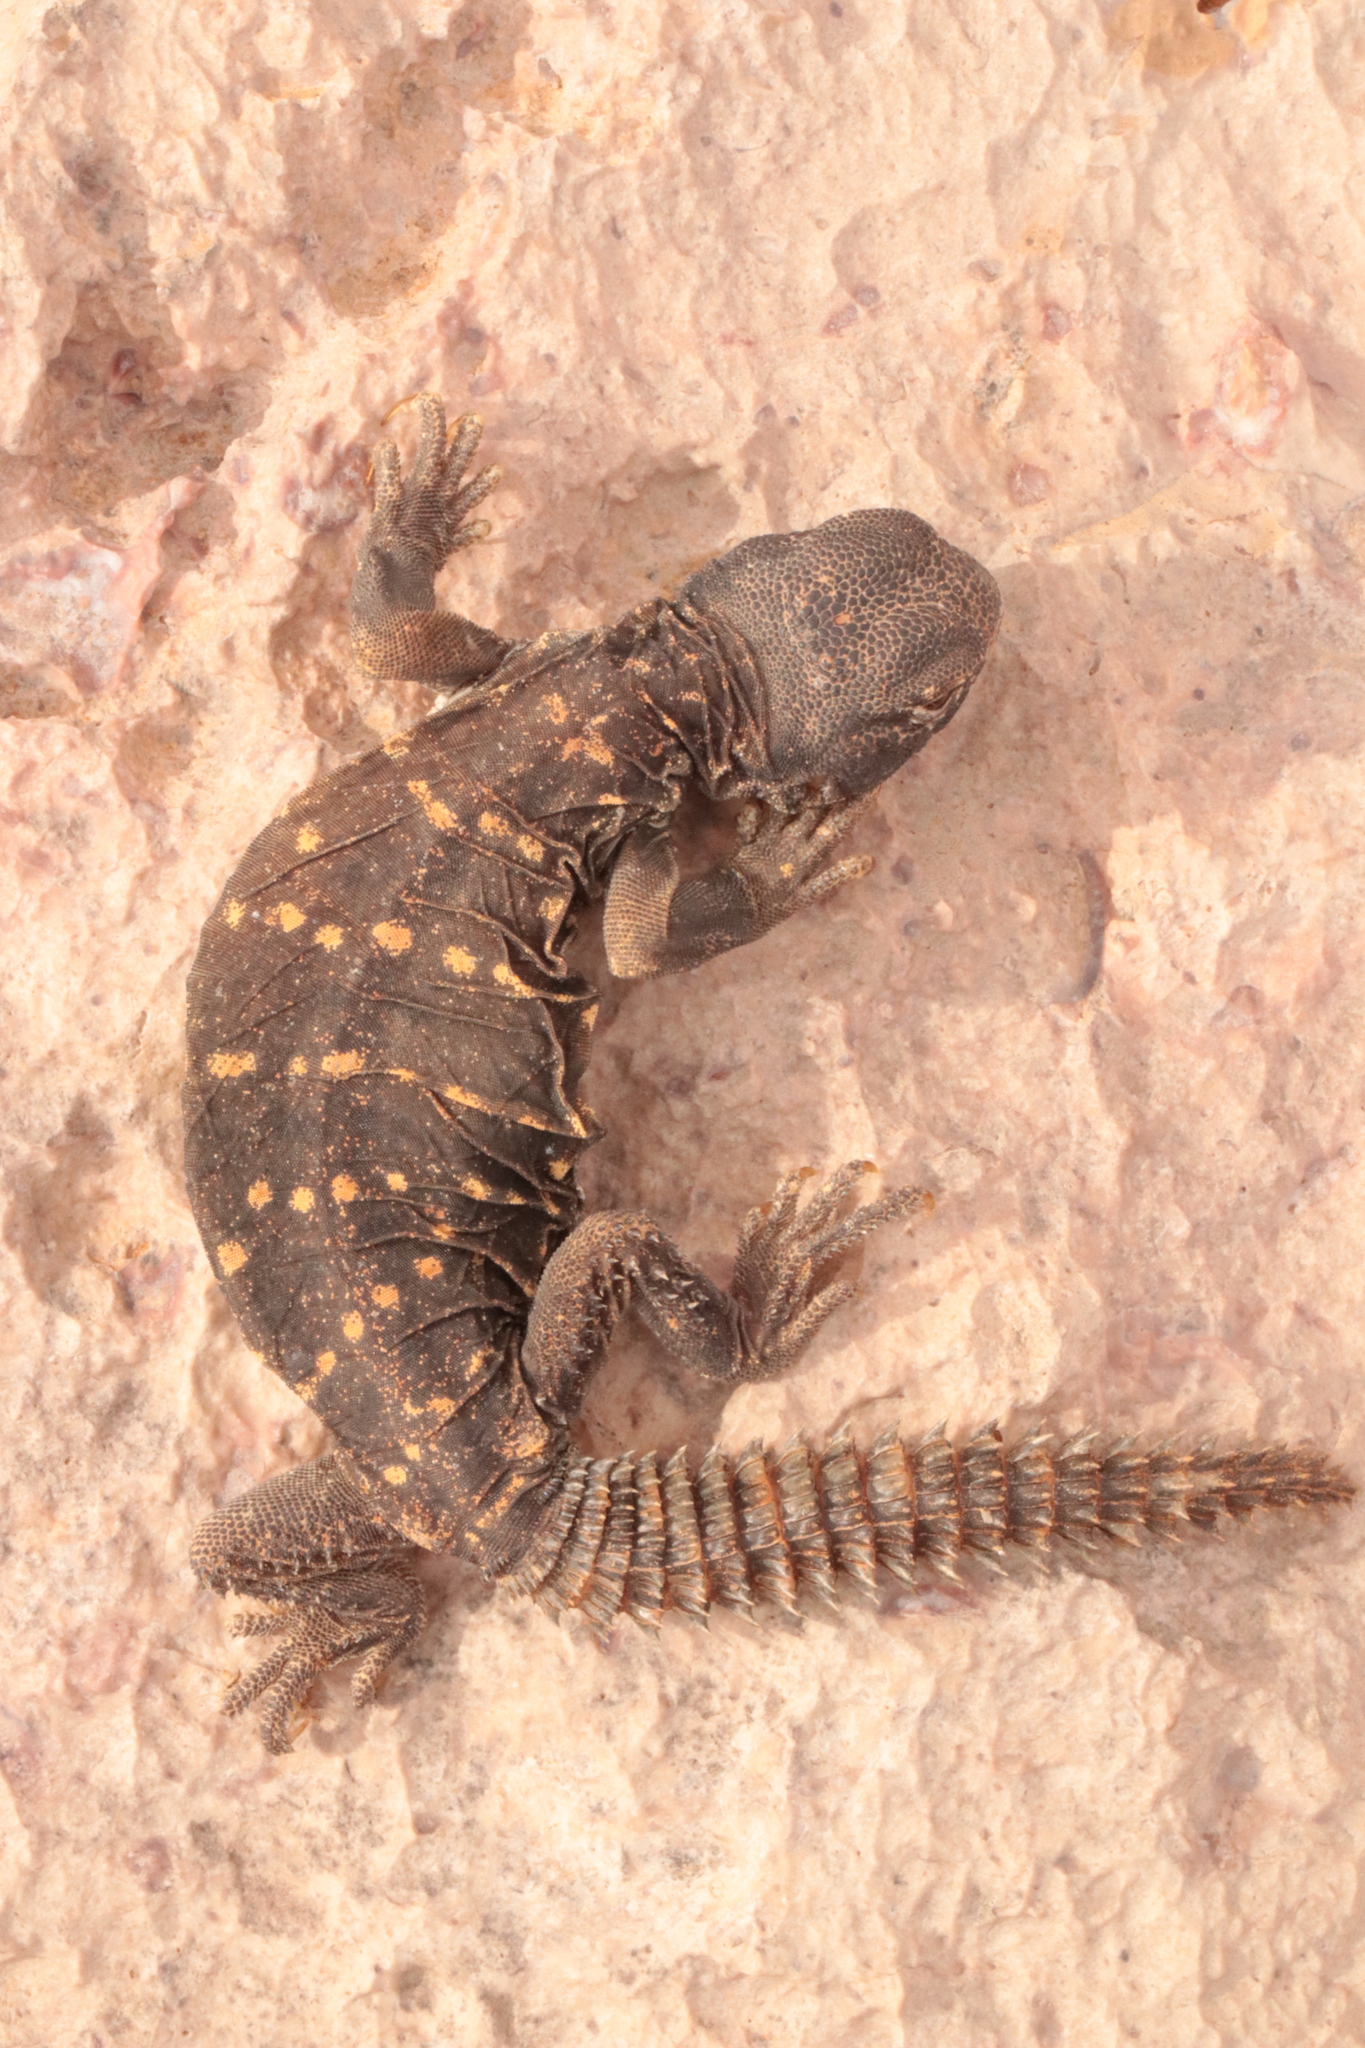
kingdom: Animalia
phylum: Chordata
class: Squamata
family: Agamidae
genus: Uromastyx
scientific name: Uromastyx aegyptia
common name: Egyptian mastigure
